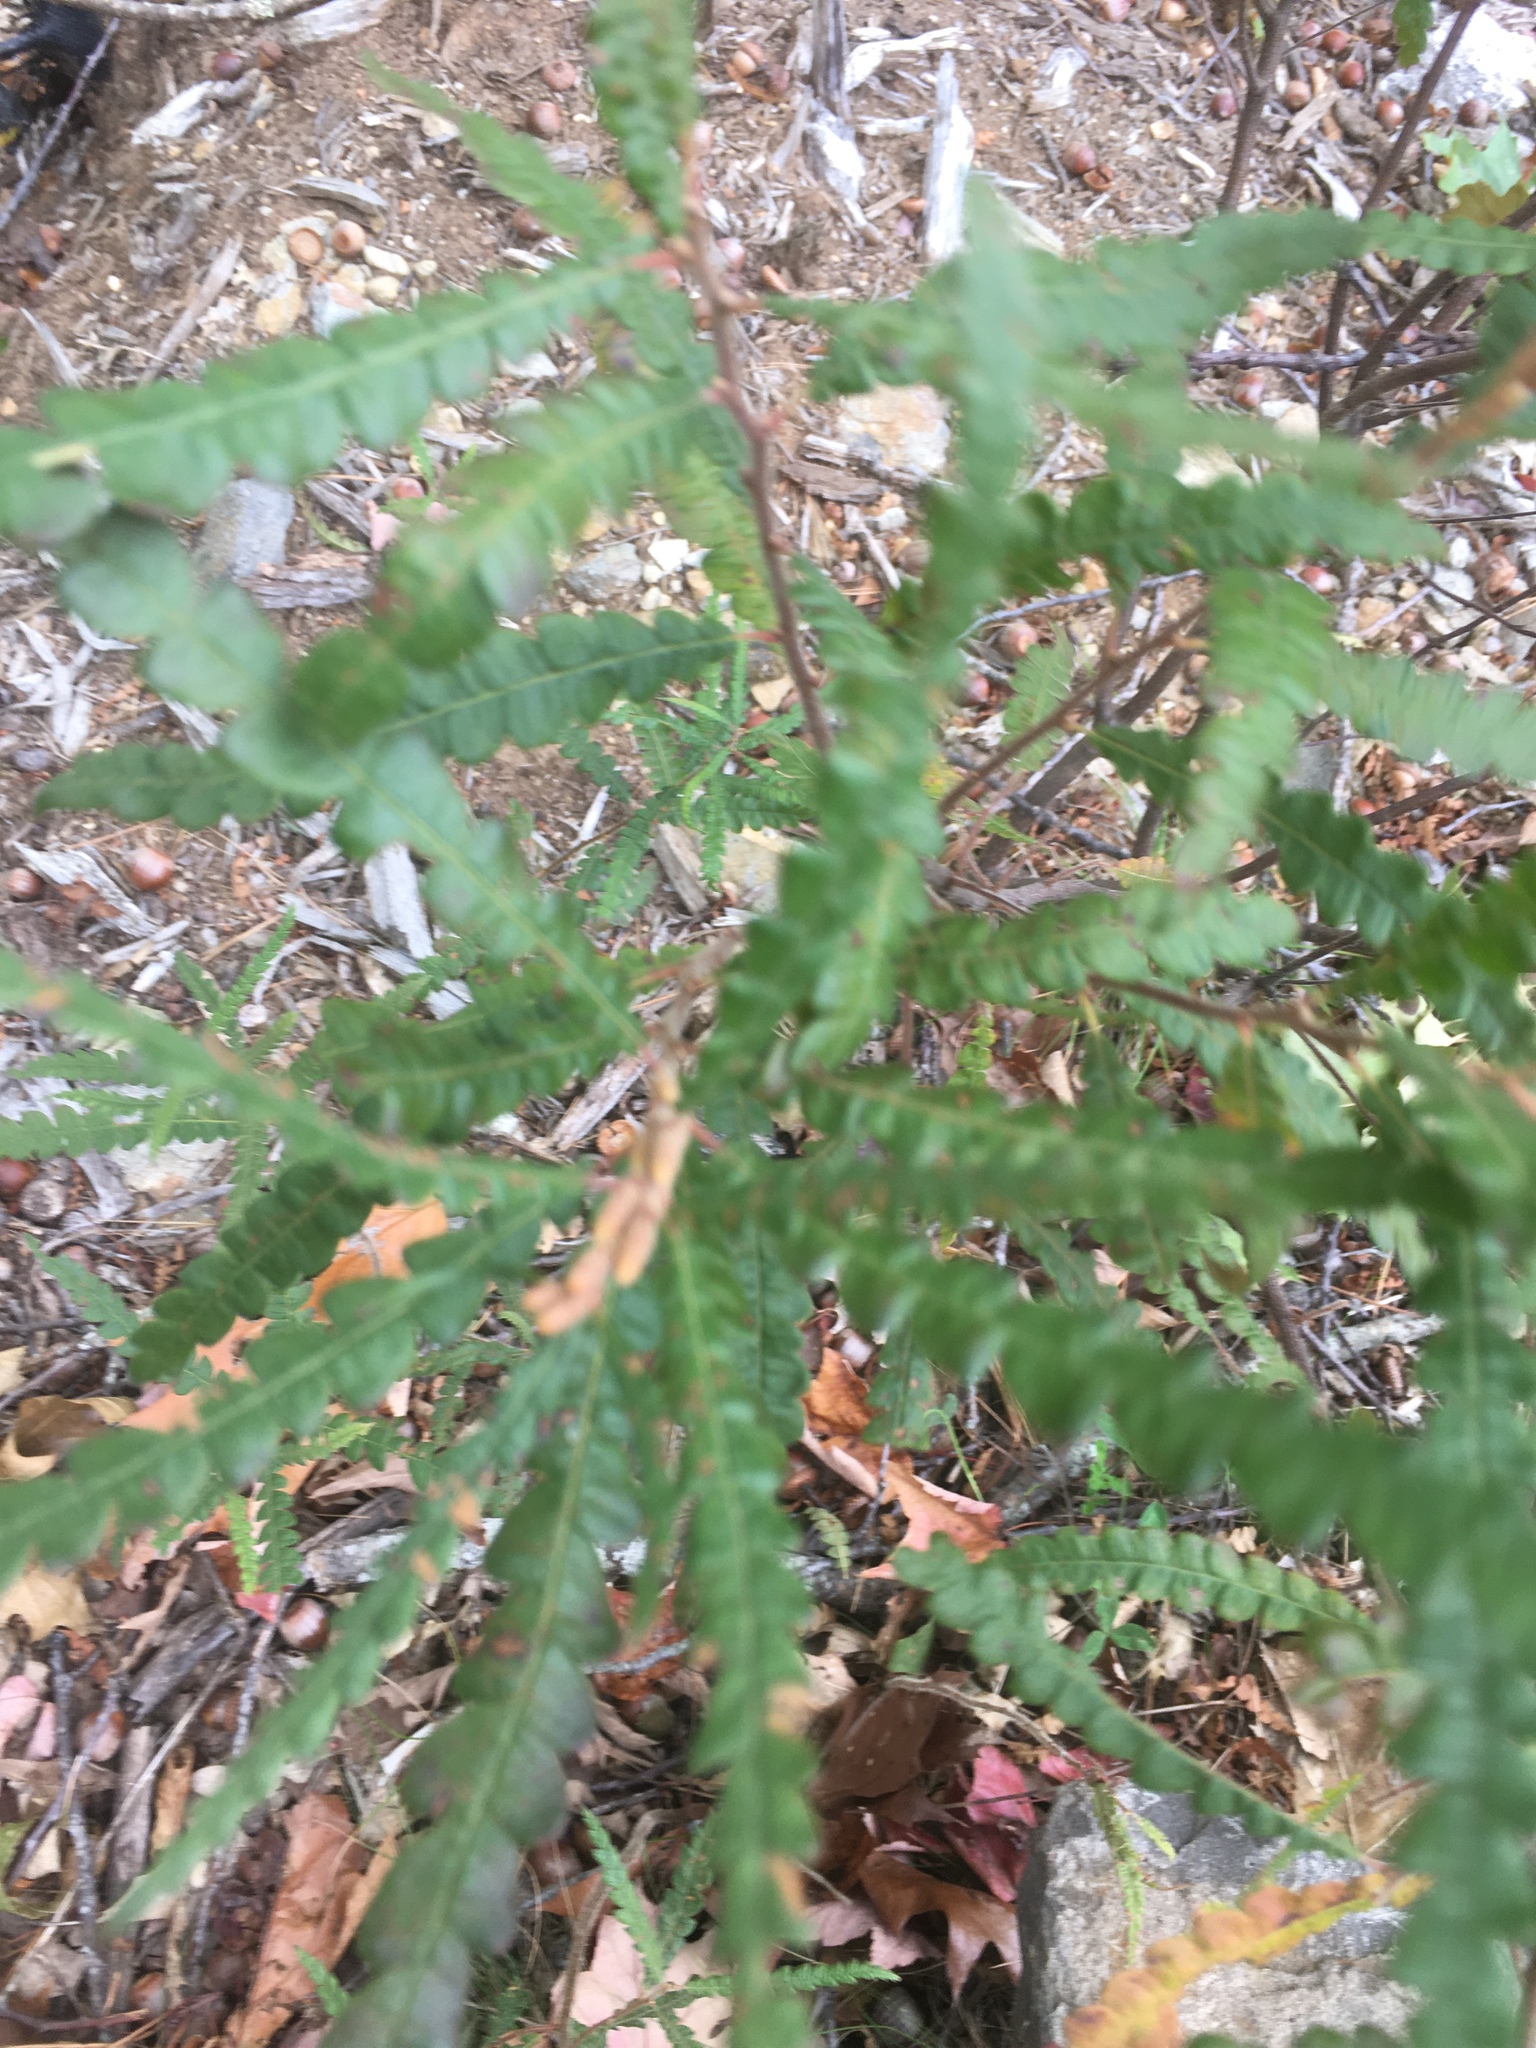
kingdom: Plantae
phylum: Tracheophyta
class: Magnoliopsida
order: Fagales
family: Myricaceae
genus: Comptonia
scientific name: Comptonia peregrina
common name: Sweet-fern
